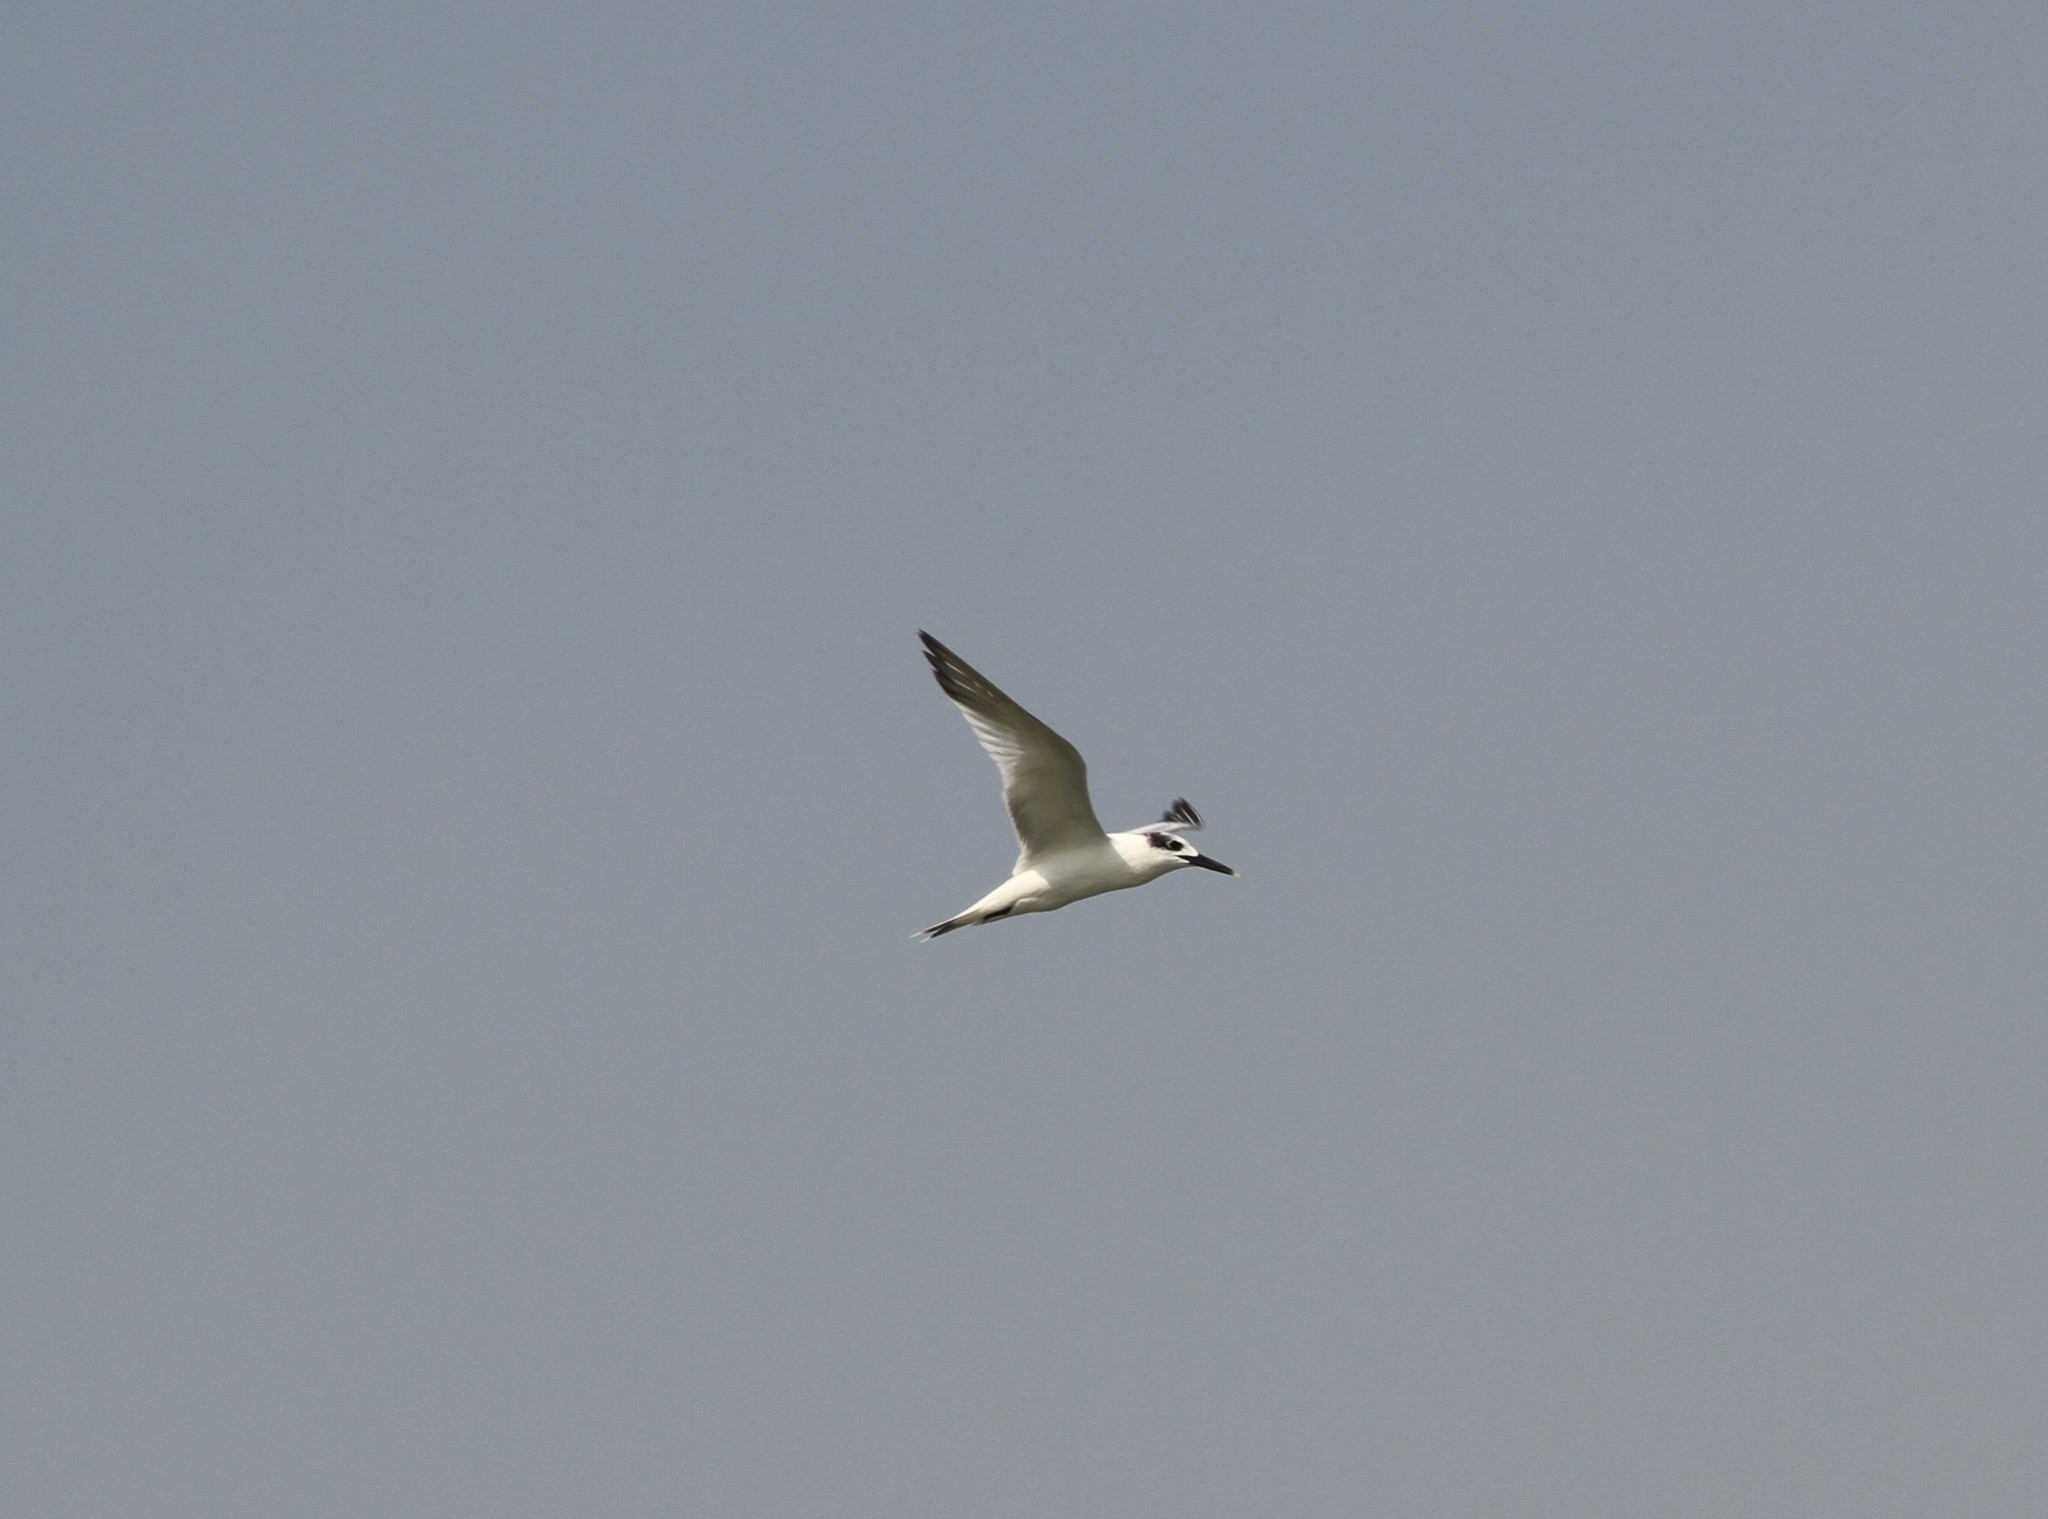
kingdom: Animalia
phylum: Chordata
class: Aves
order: Charadriiformes
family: Laridae
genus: Thalasseus
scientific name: Thalasseus sandvicensis
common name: Sandwich tern
